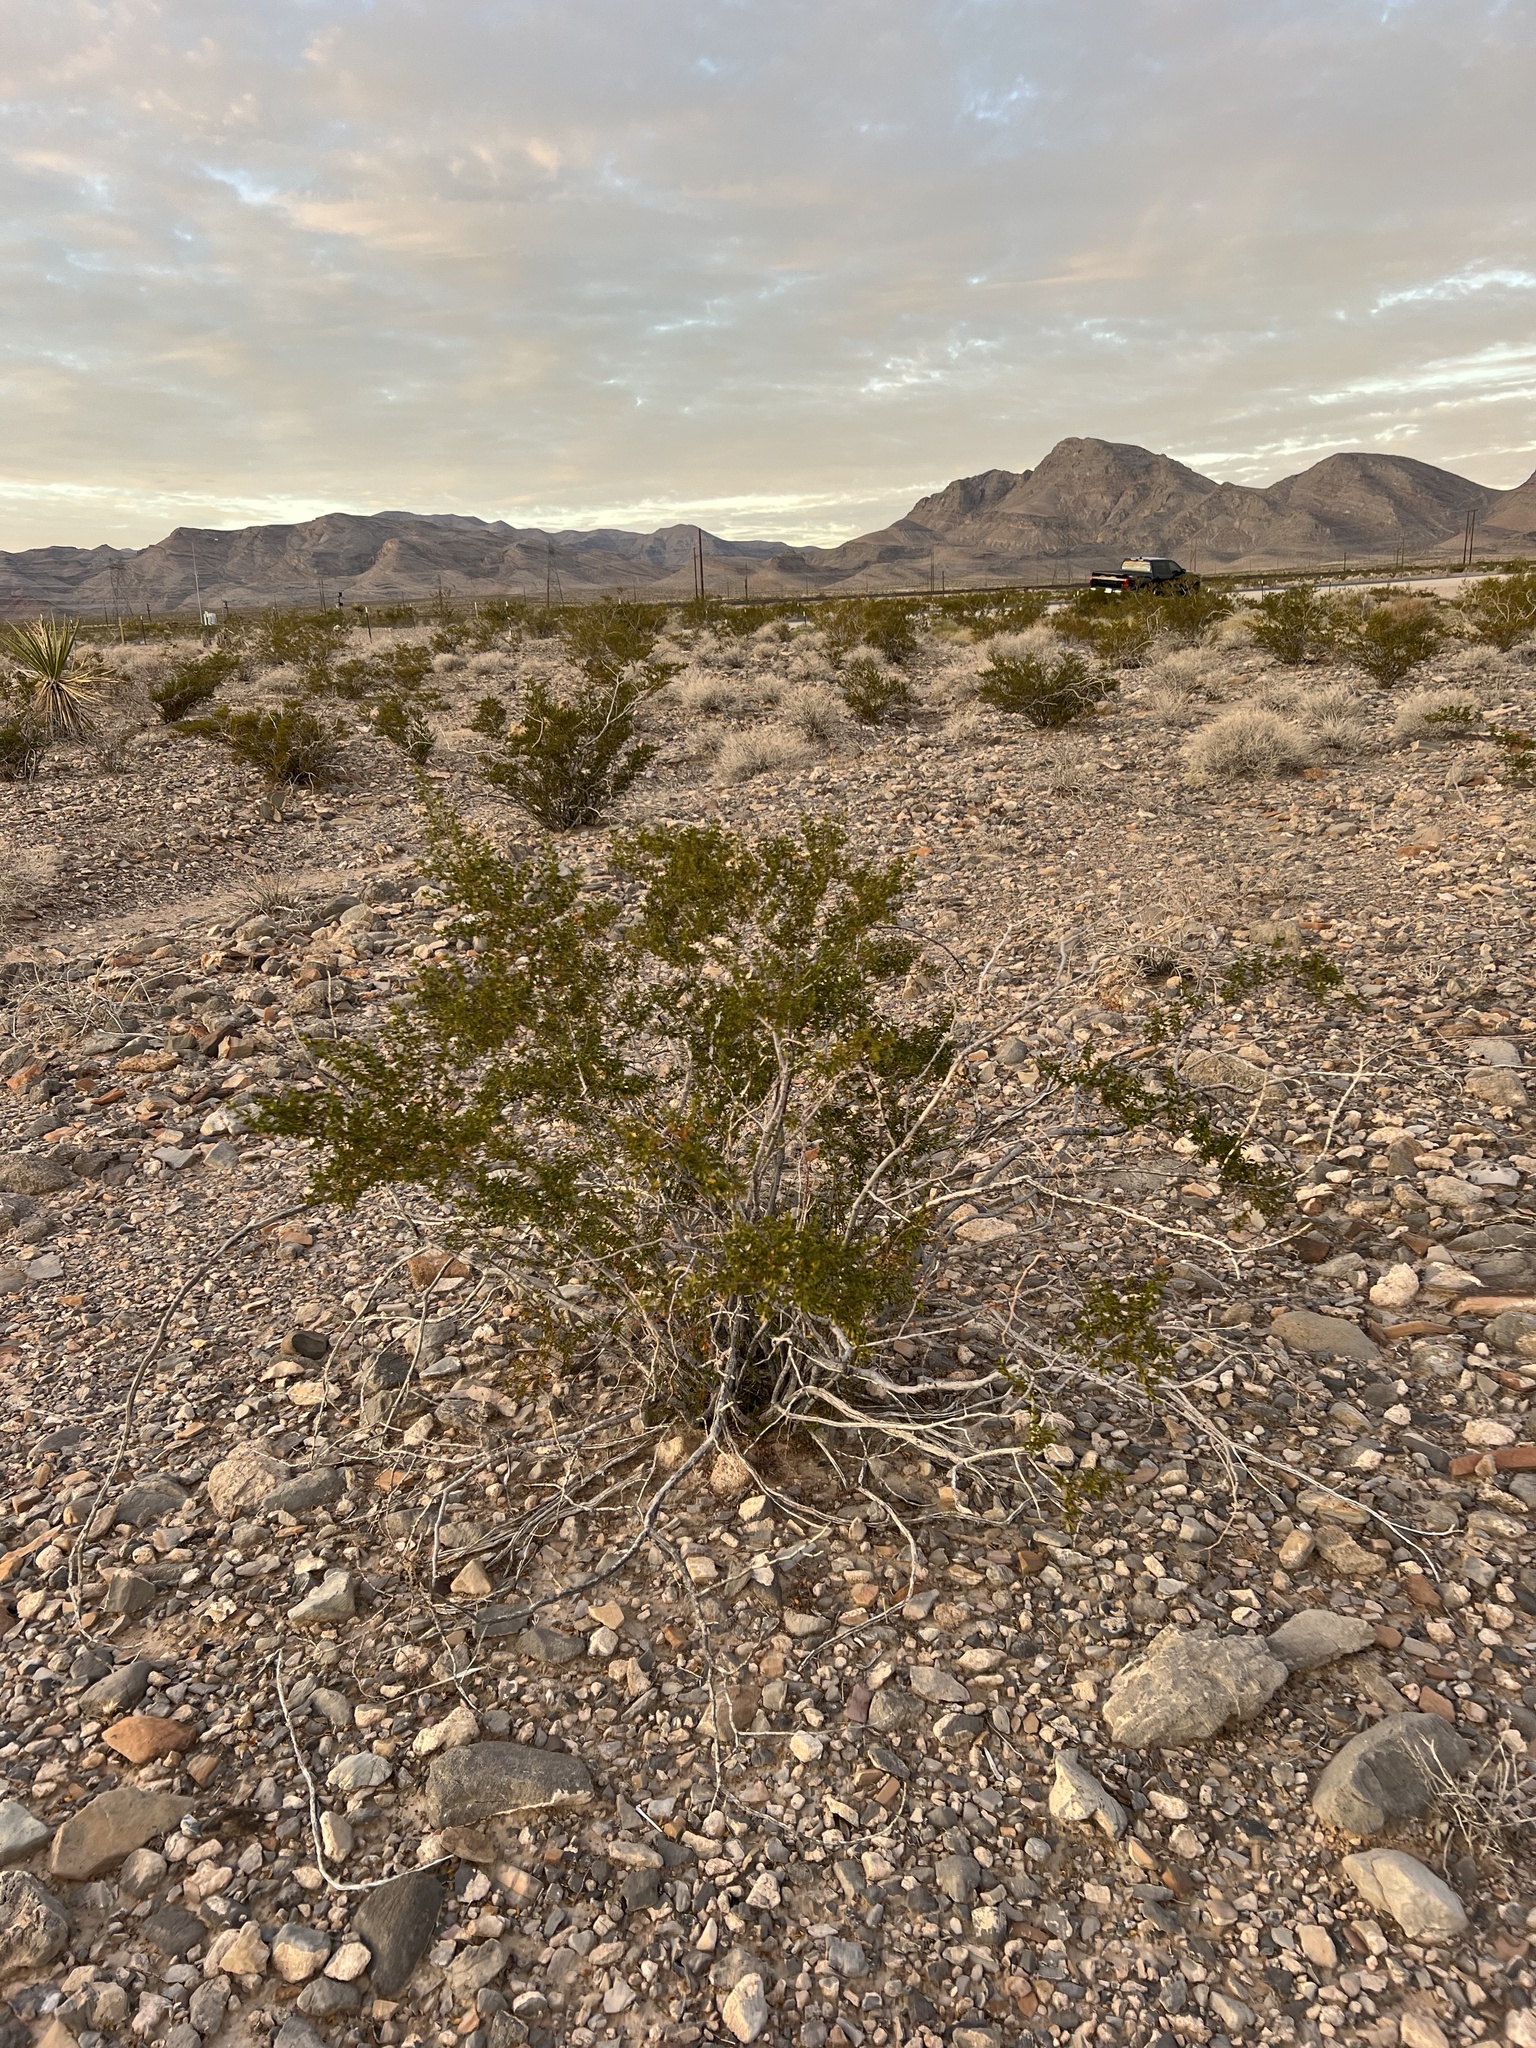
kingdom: Plantae
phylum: Tracheophyta
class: Magnoliopsida
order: Zygophyllales
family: Zygophyllaceae
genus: Larrea
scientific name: Larrea tridentata
